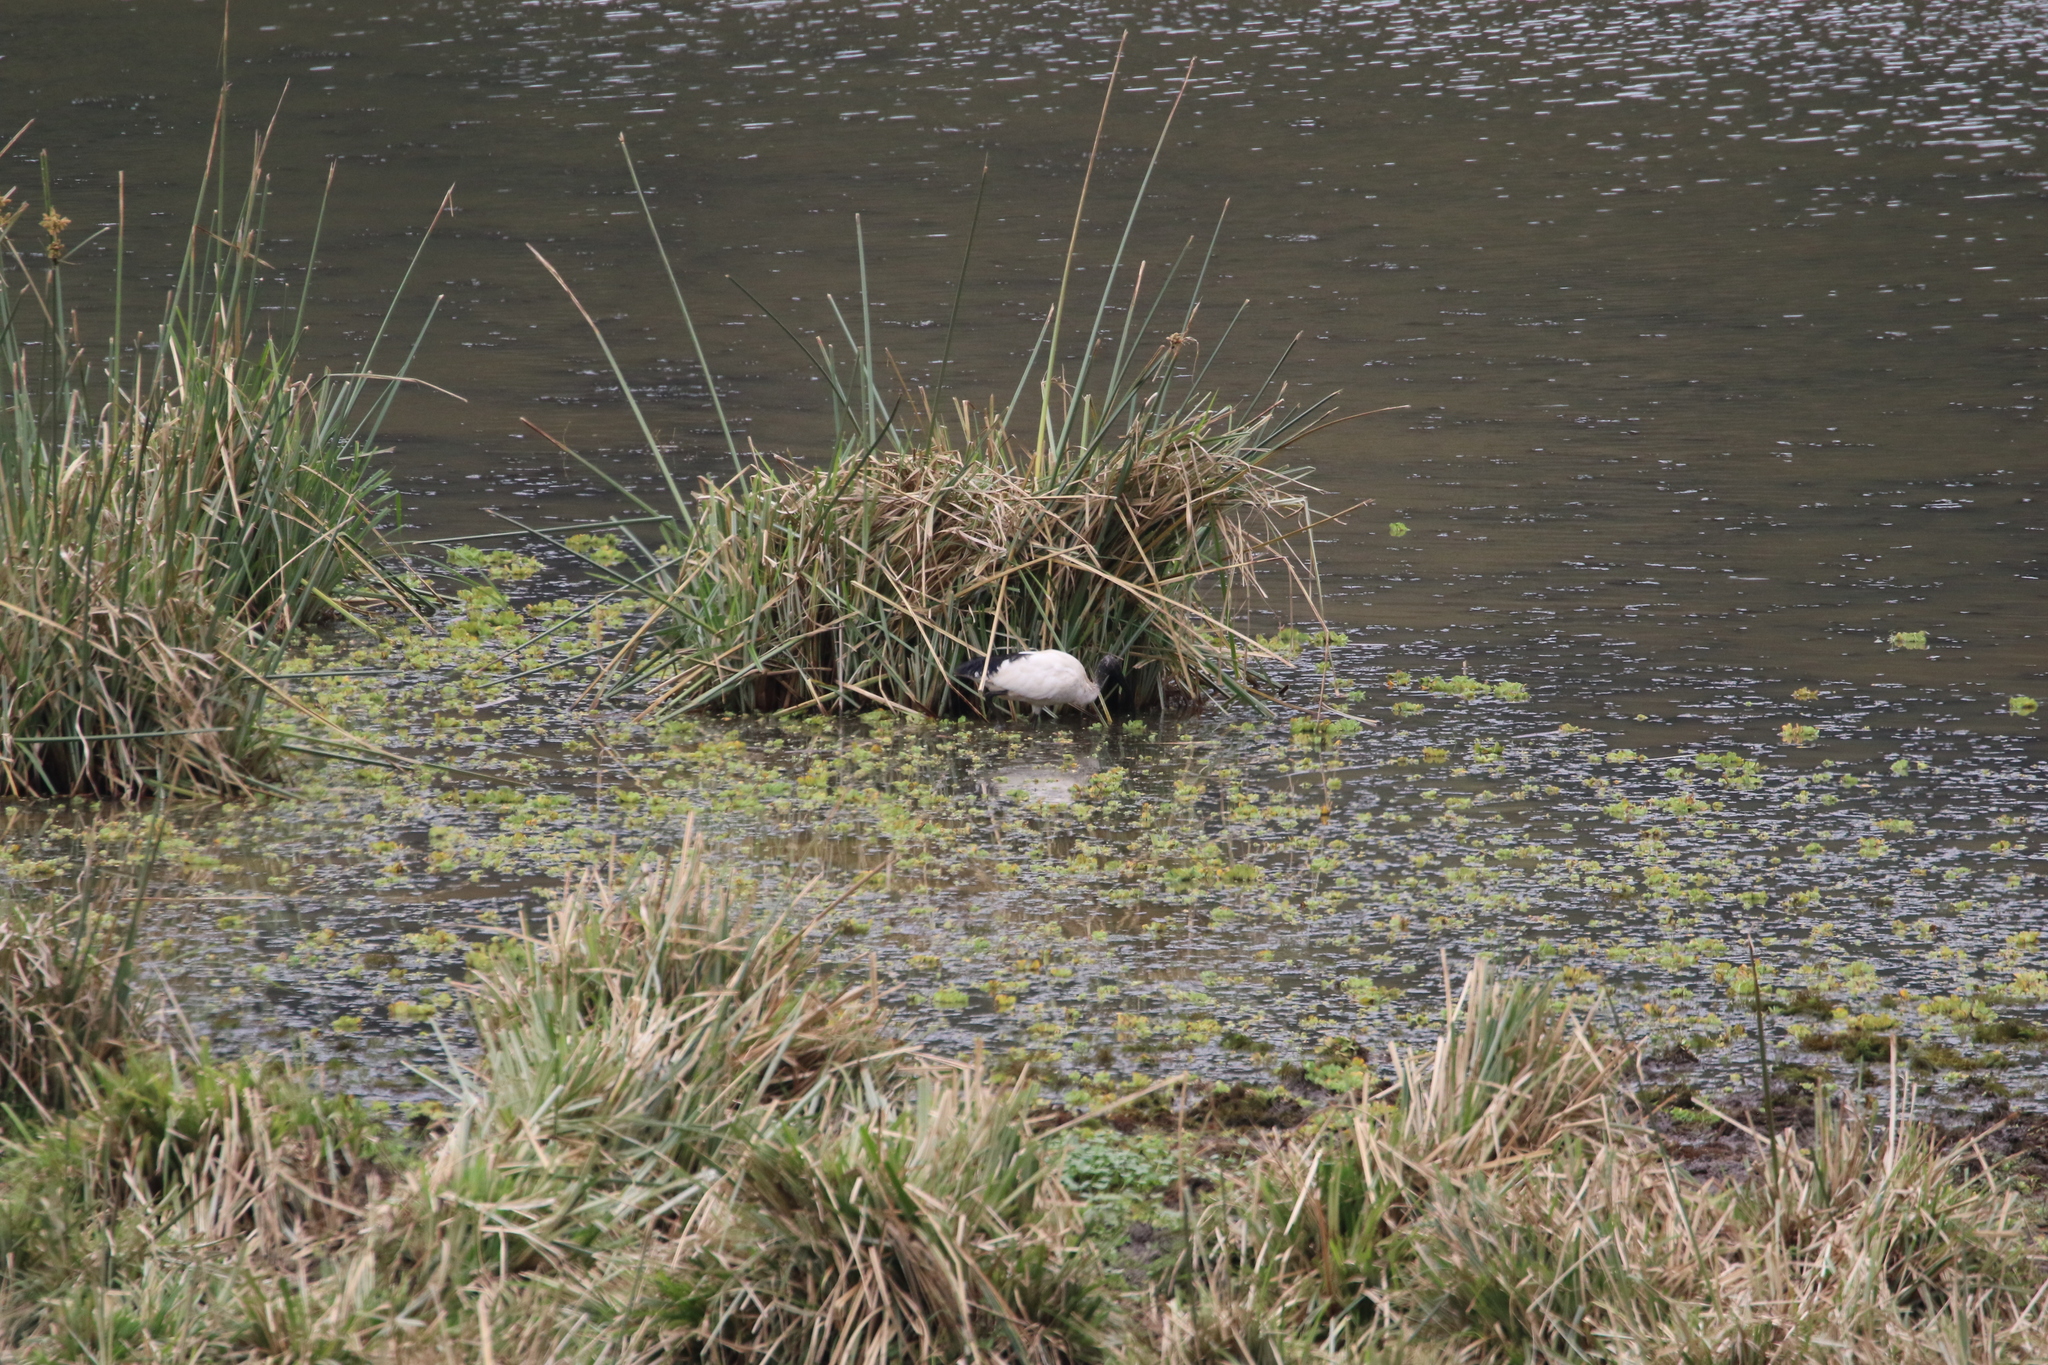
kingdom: Animalia
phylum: Chordata
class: Aves
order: Pelecaniformes
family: Threskiornithidae
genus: Threskiornis
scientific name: Threskiornis aethiopicus
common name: Sacred ibis
